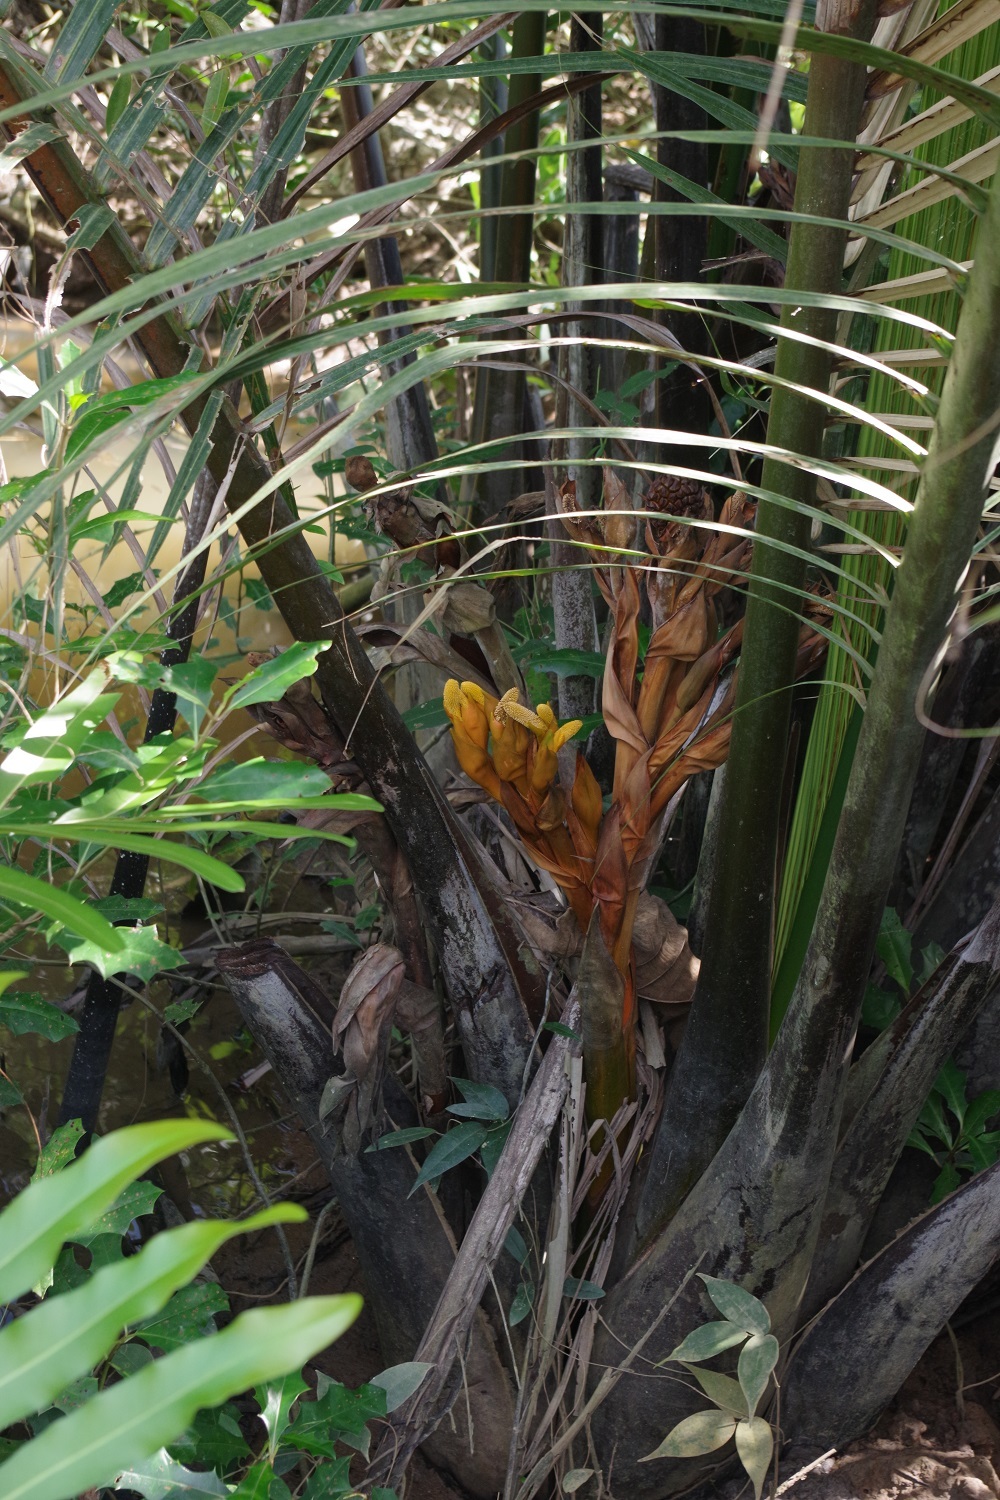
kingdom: Plantae
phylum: Tracheophyta
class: Liliopsida
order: Arecales
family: Arecaceae
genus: Nypa
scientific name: Nypa fruticans
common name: Mangrove palm
